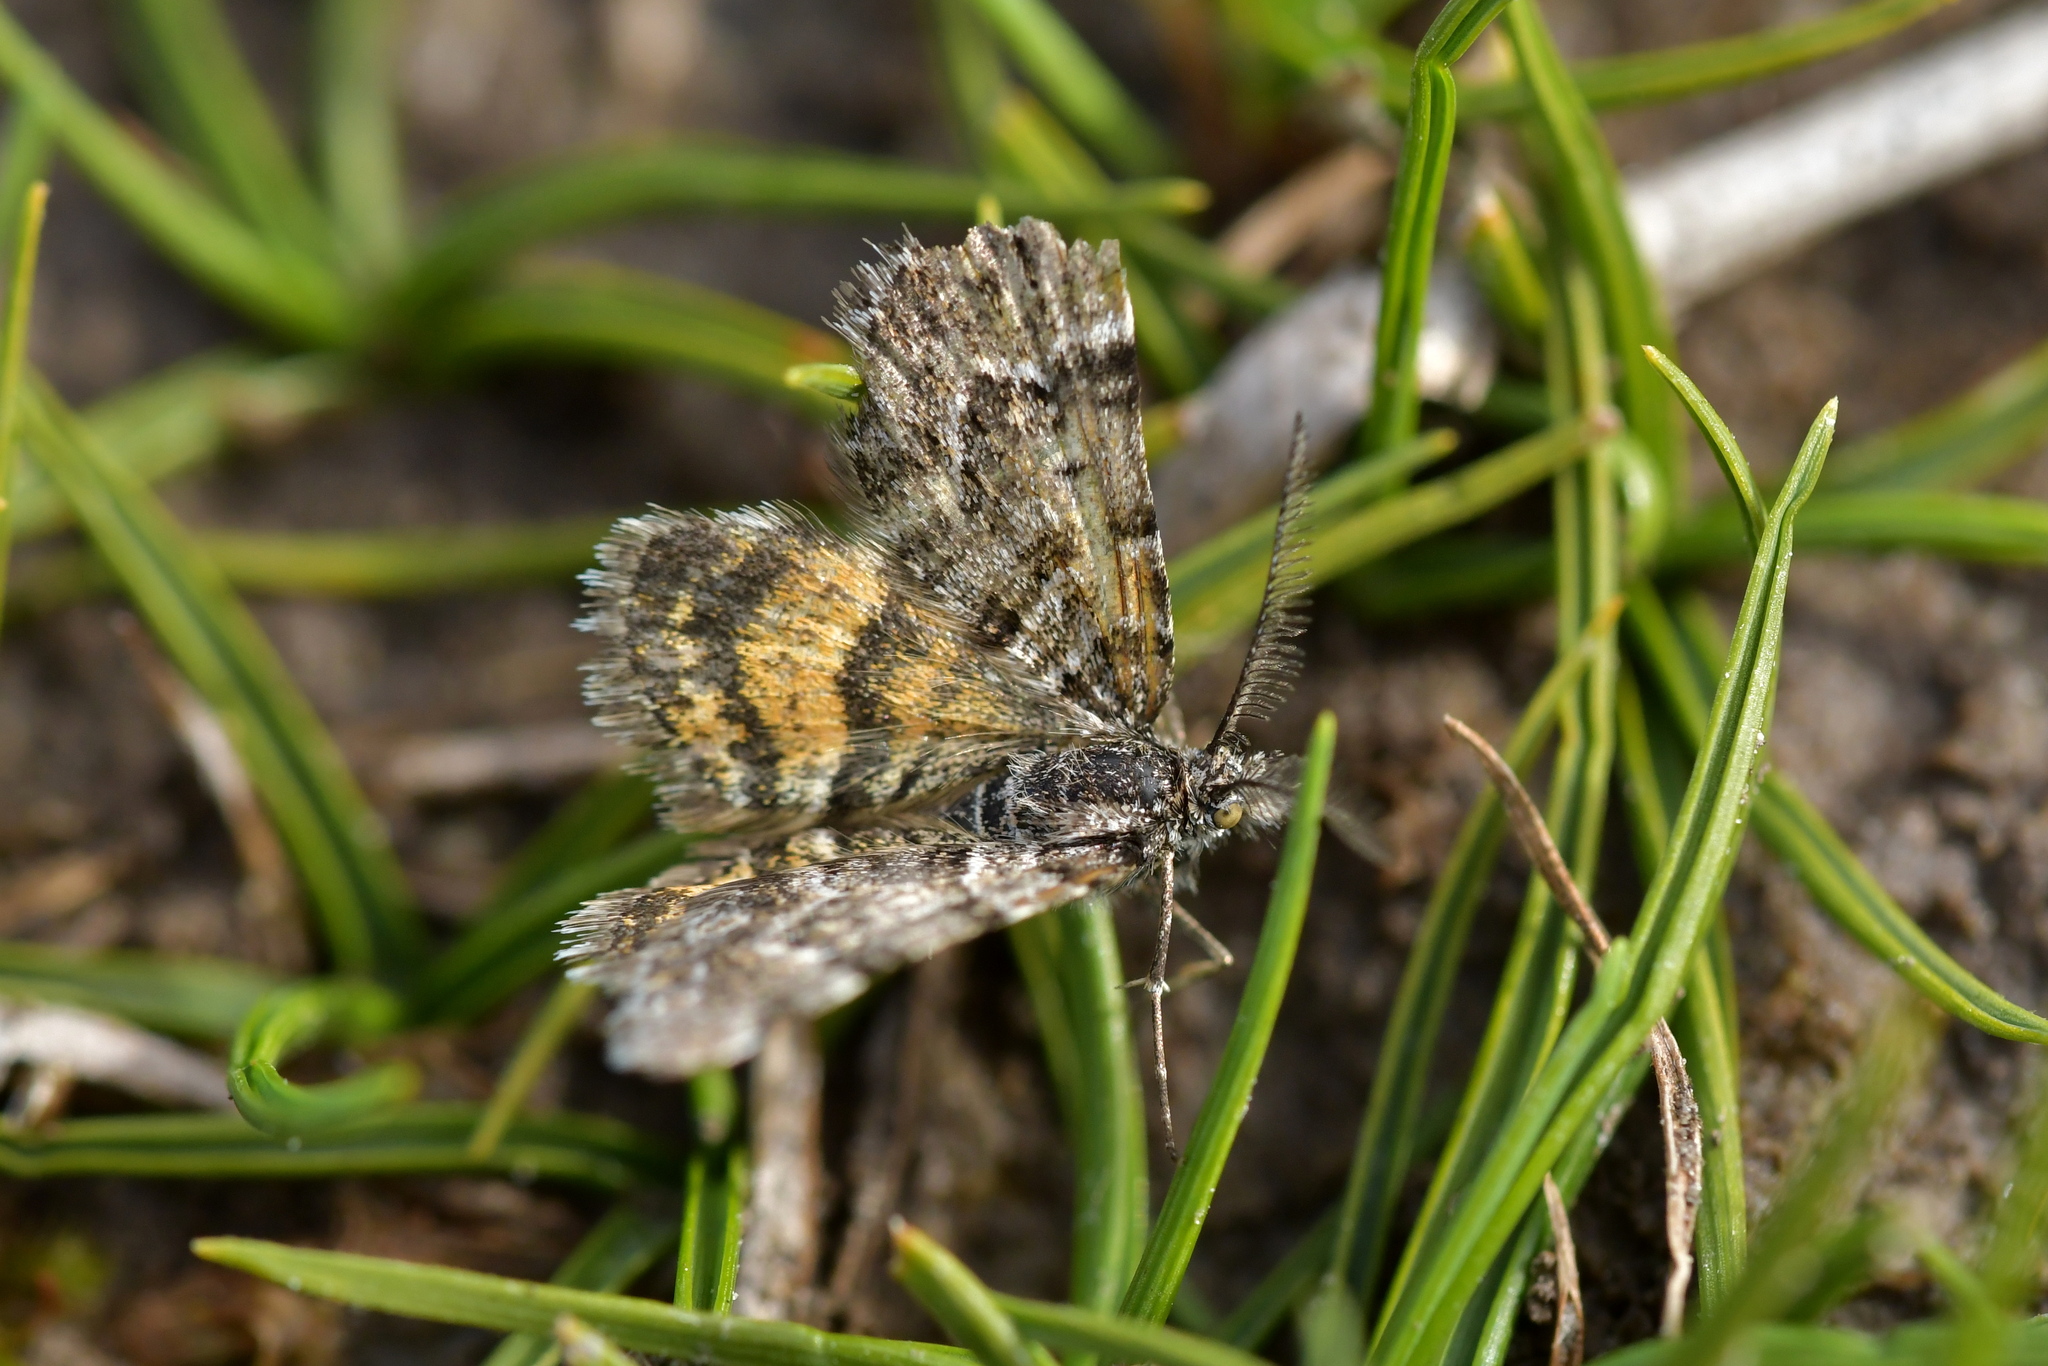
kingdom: Animalia
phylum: Arthropoda
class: Insecta
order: Lepidoptera
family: Geometridae
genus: Arctesthes
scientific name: Arctesthes catapyrrha
